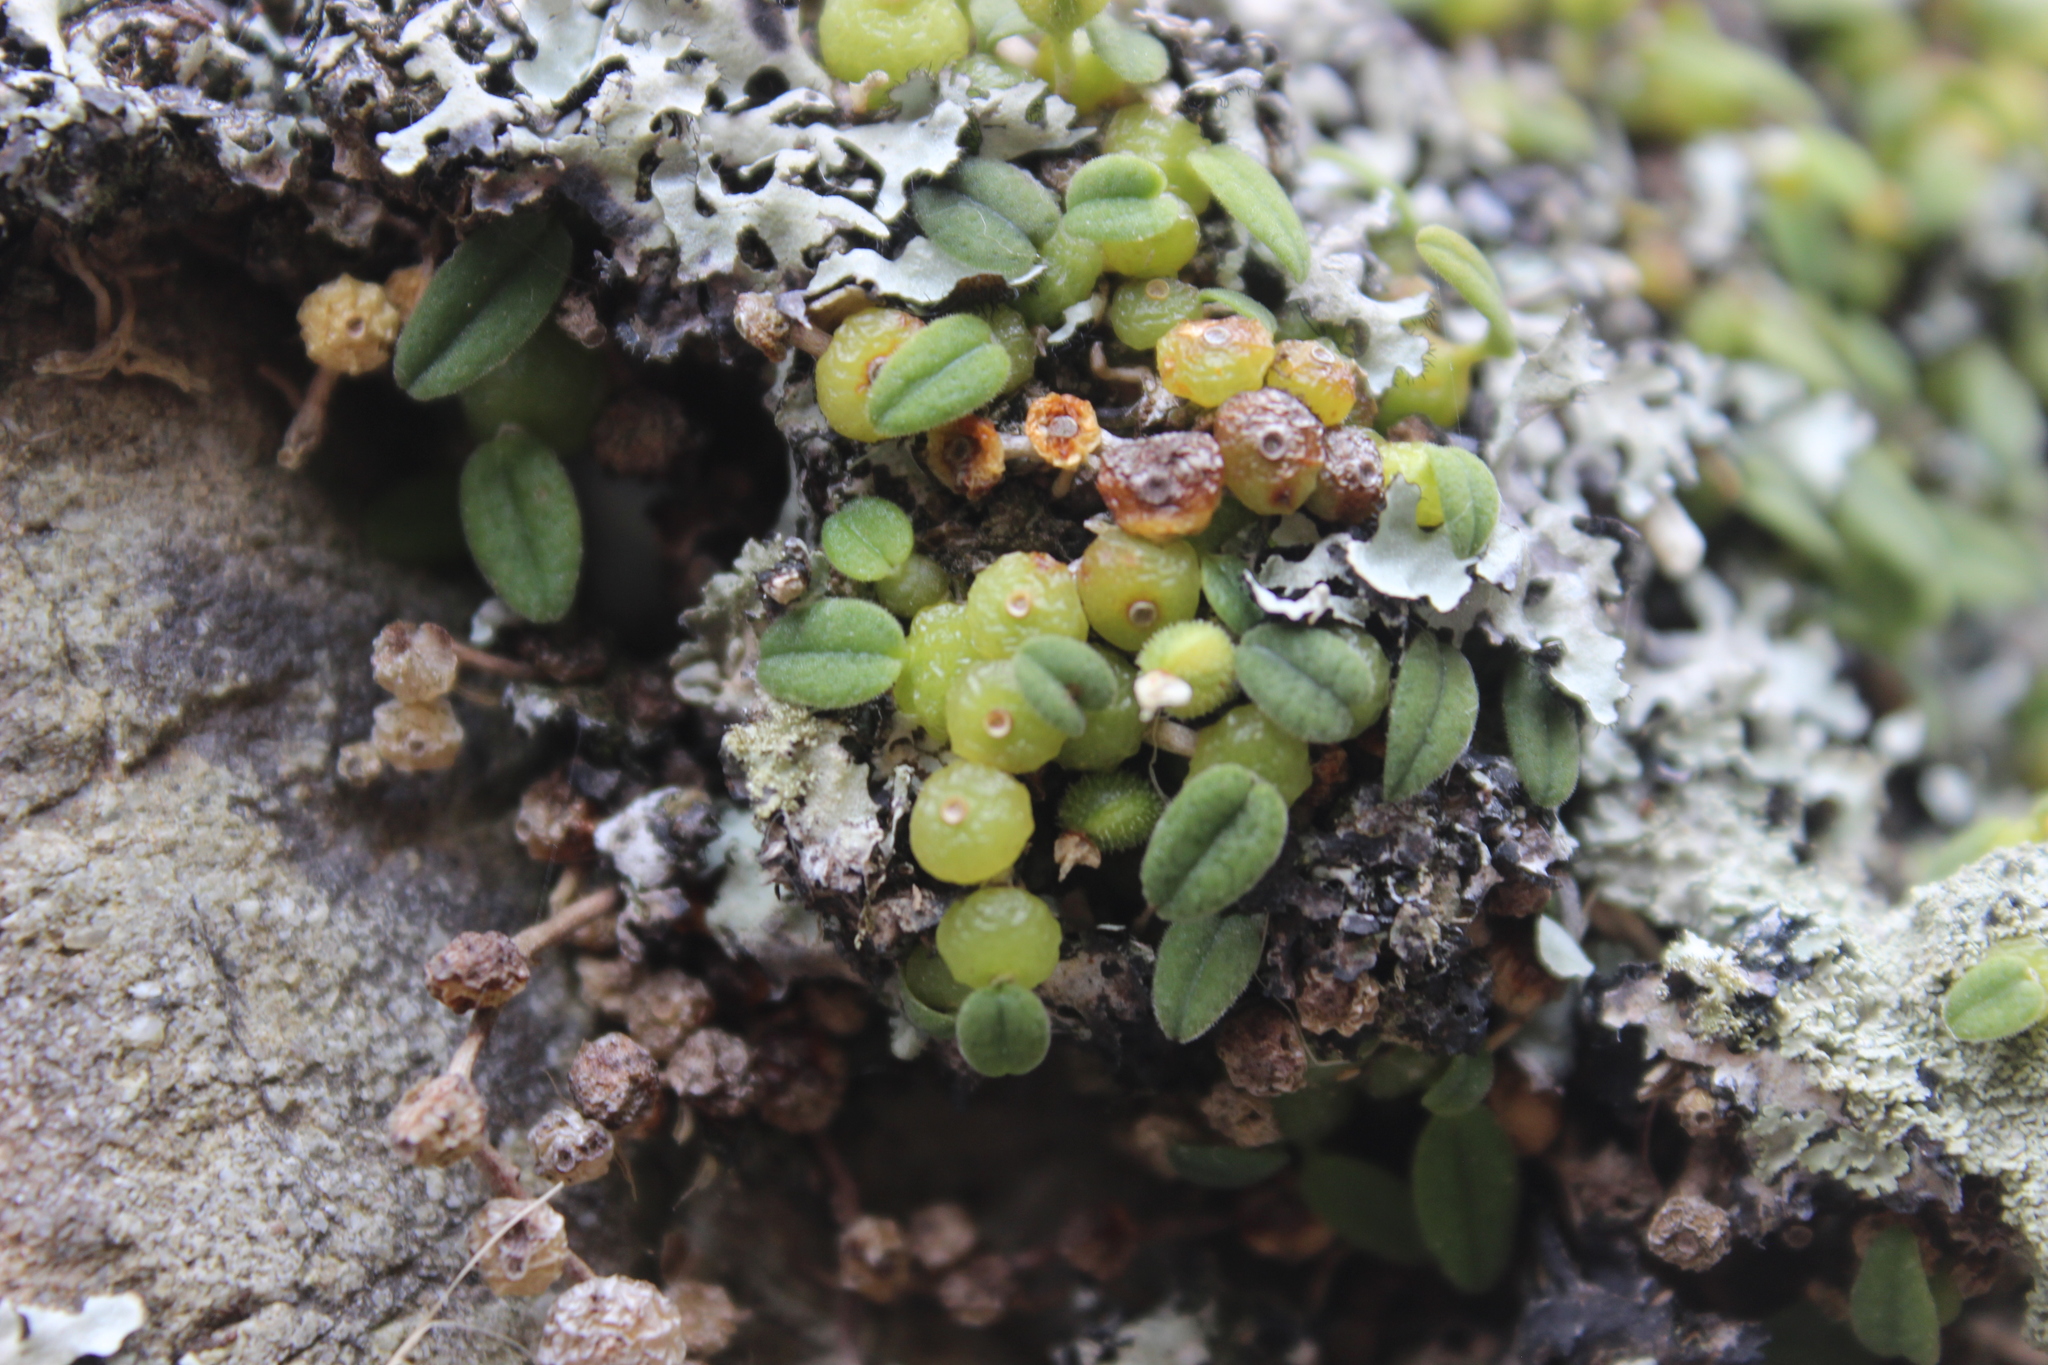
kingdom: Plantae
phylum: Tracheophyta
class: Liliopsida
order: Asparagales
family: Orchidaceae
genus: Bulbophyllum
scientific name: Bulbophyllum pygmaeum
